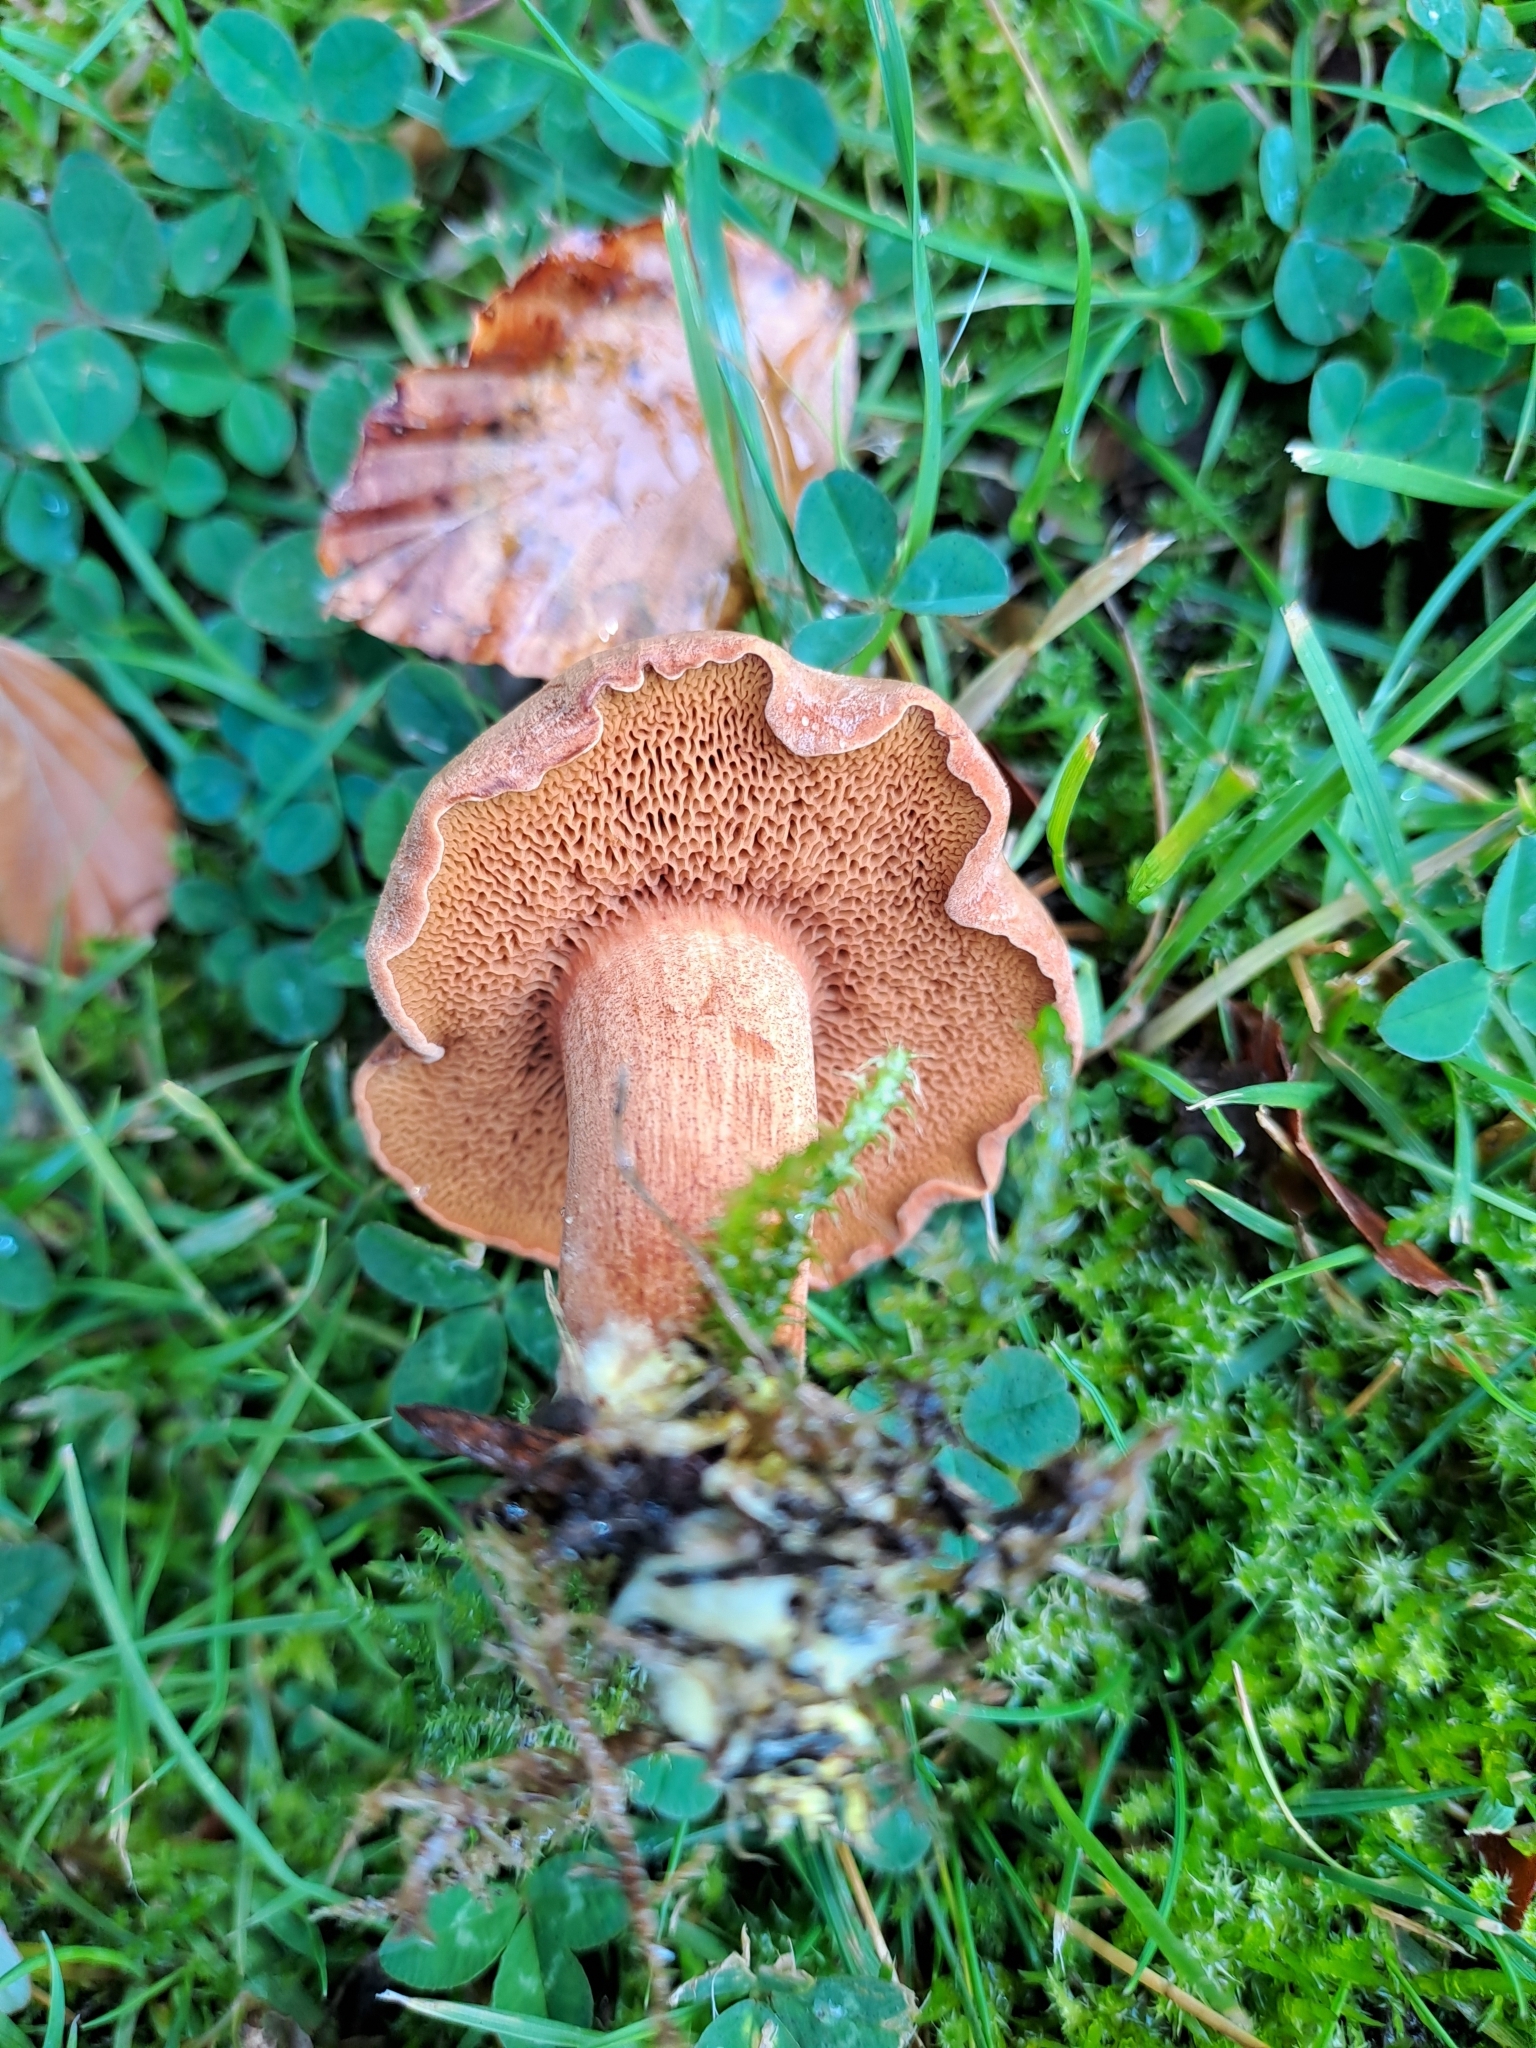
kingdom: Fungi
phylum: Basidiomycota
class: Agaricomycetes
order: Boletales
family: Boletaceae
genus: Chalciporus
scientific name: Chalciporus piperatus
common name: Peppery bolete
